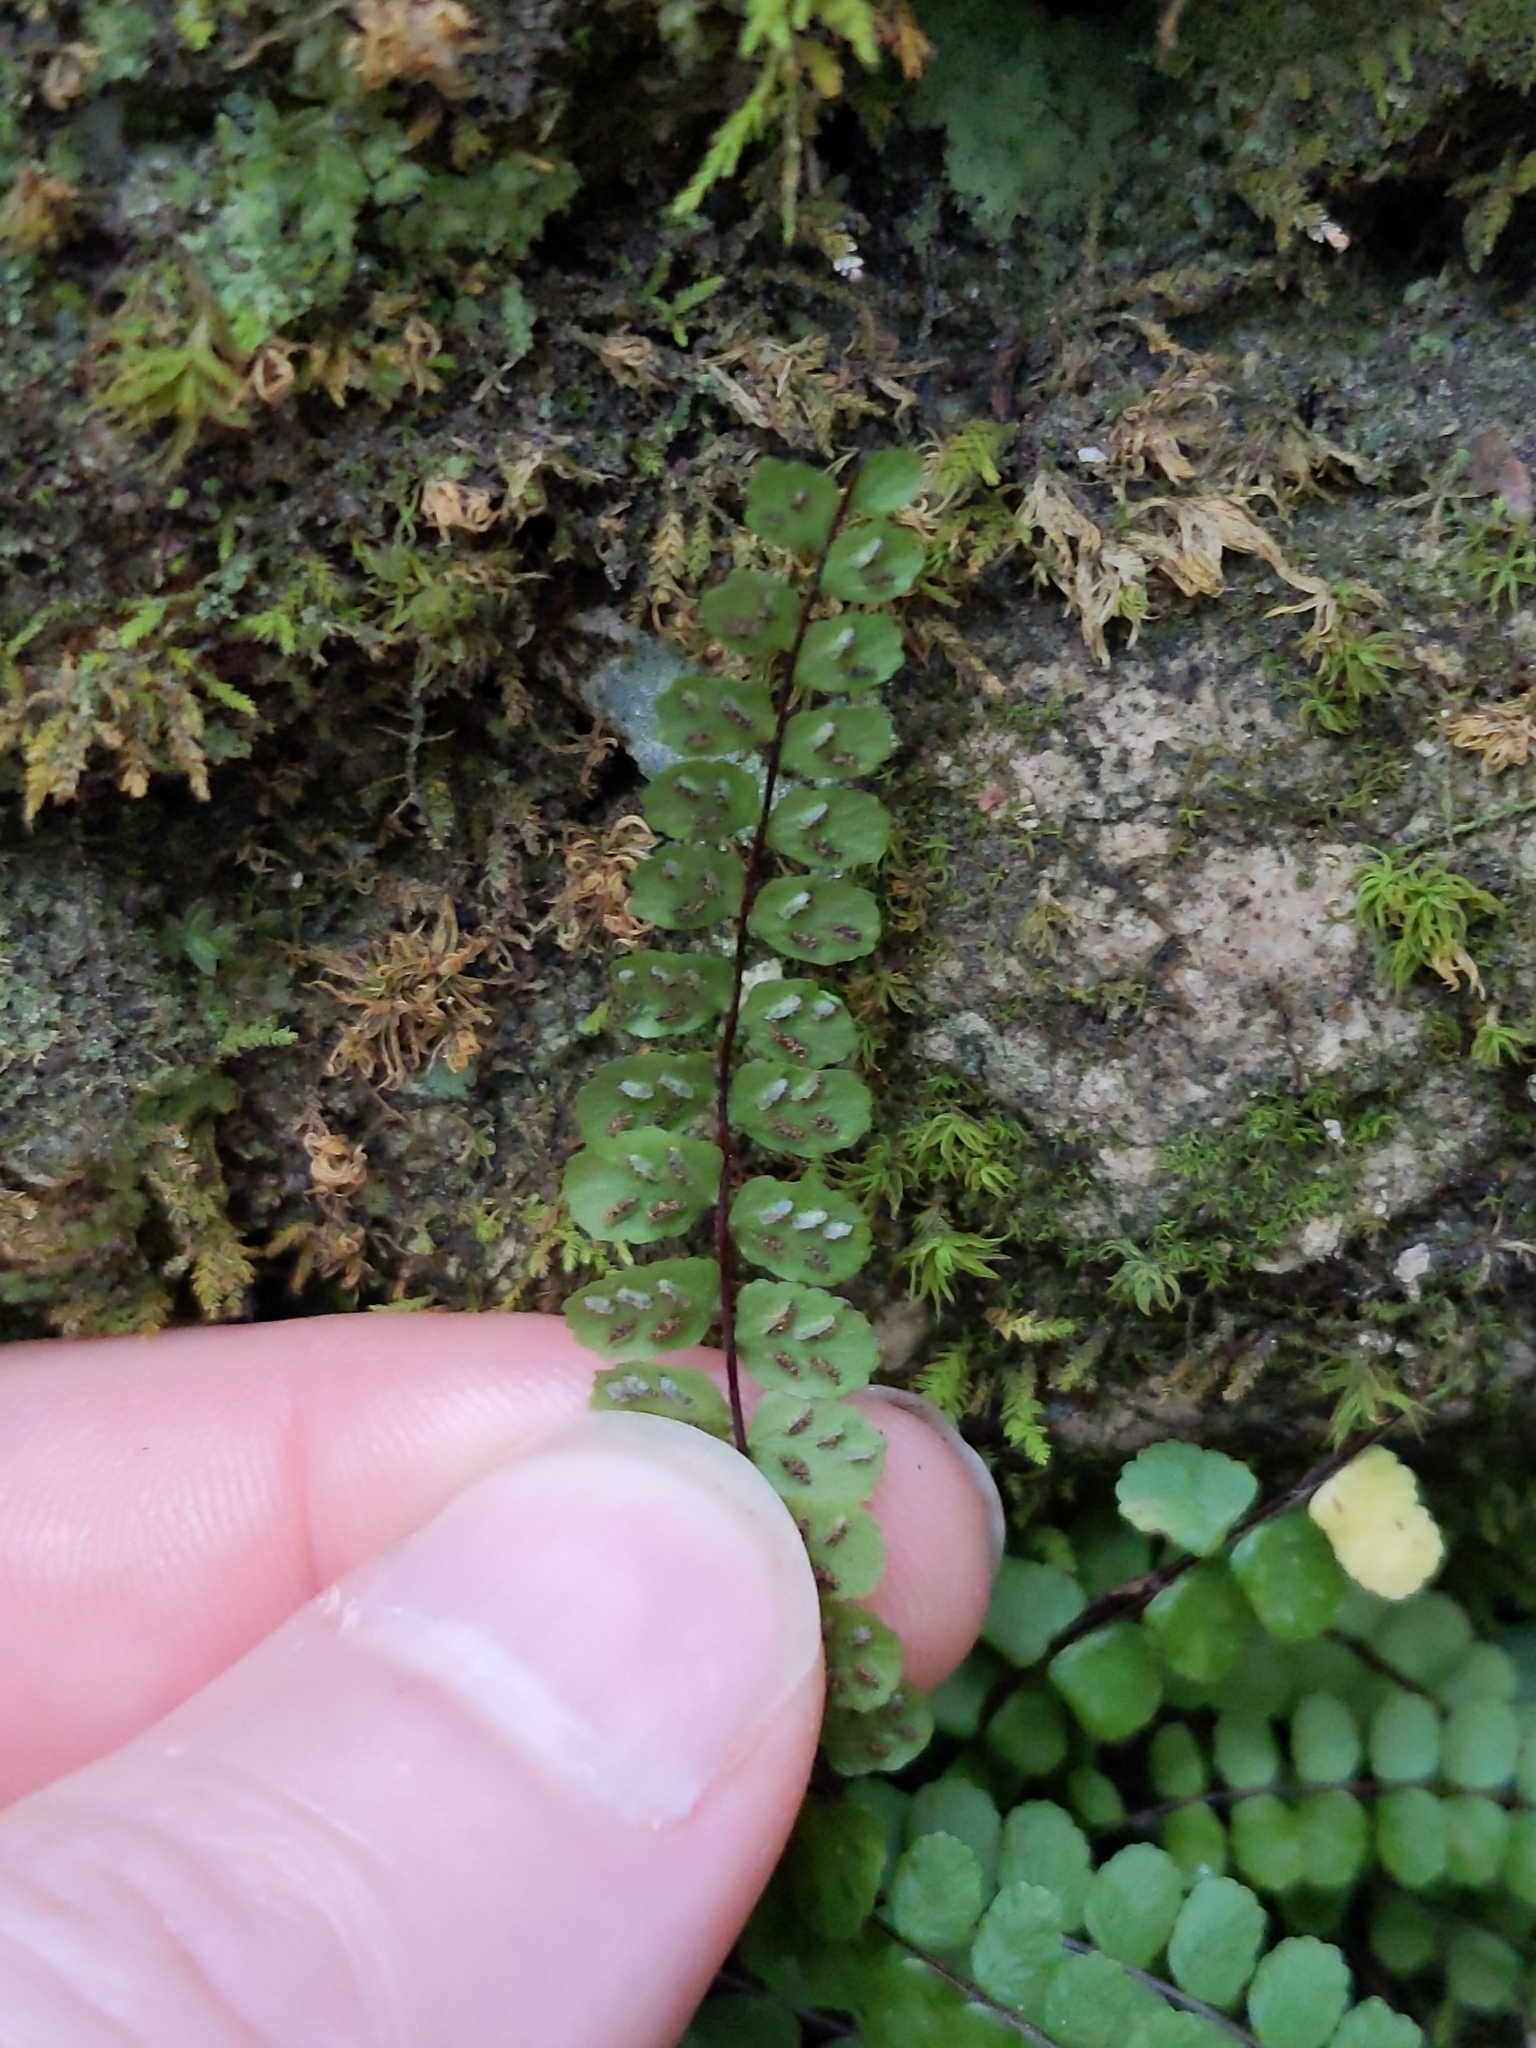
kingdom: Plantae
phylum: Tracheophyta
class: Polypodiopsida
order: Polypodiales
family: Aspleniaceae
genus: Asplenium
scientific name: Asplenium trichomanes
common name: Maidenhair spleenwort
